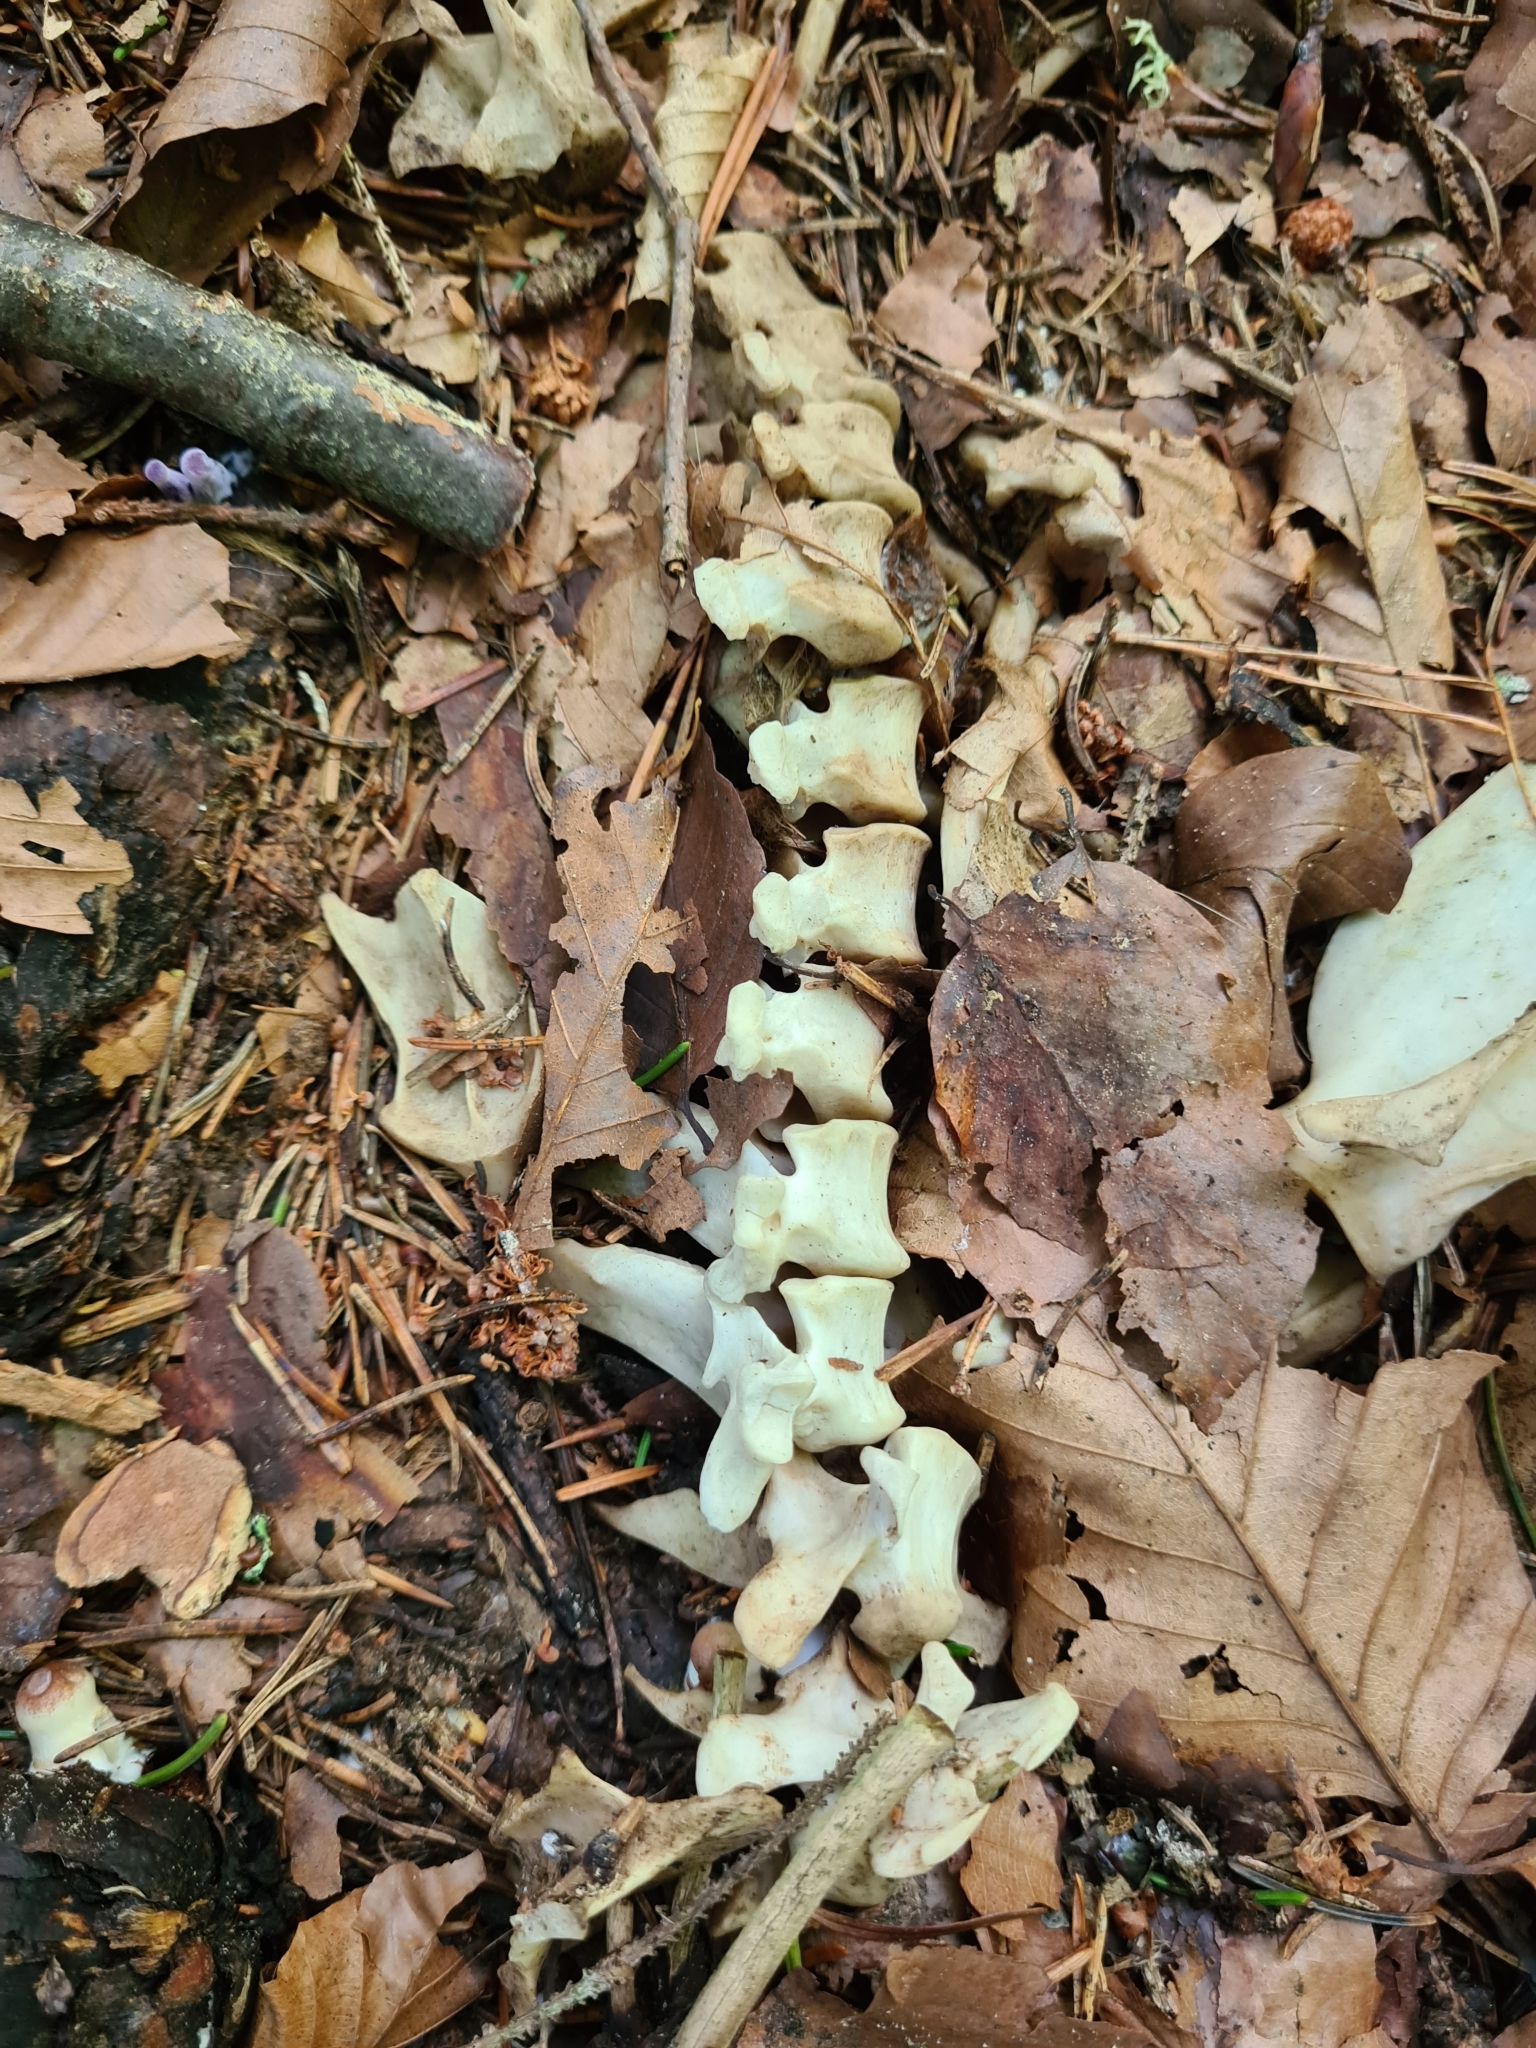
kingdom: Animalia
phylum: Chordata
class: Mammalia
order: Carnivora
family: Canidae
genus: Vulpes
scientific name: Vulpes vulpes
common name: Red fox
